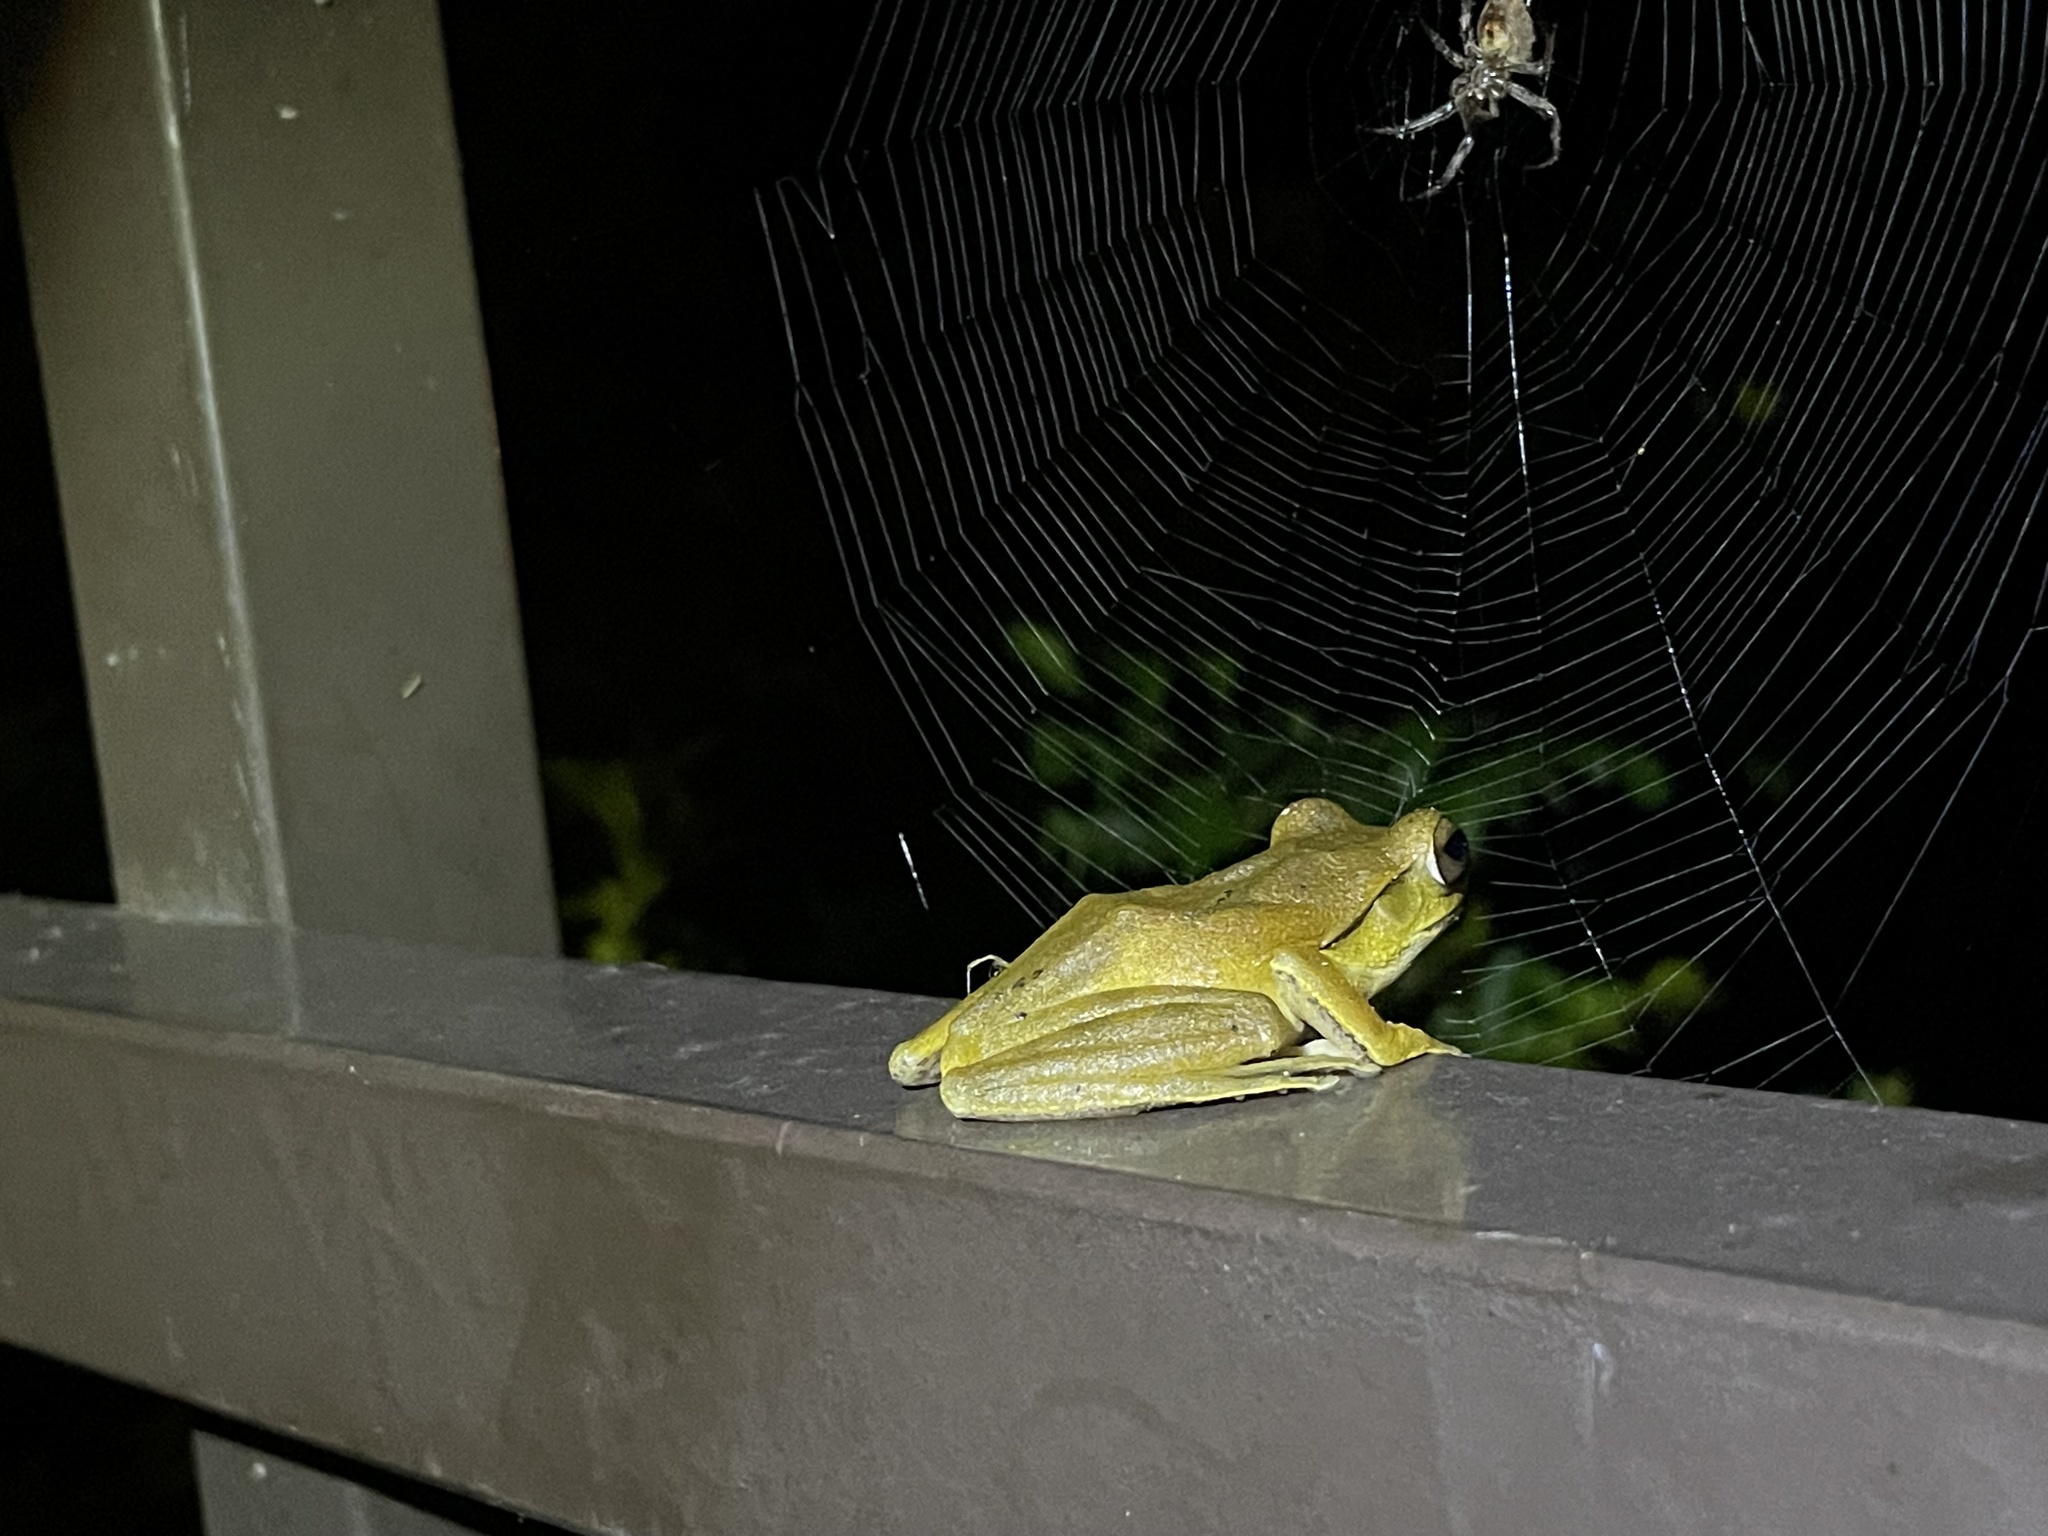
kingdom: Animalia
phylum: Chordata
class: Amphibia
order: Anura
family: Rhacophoridae
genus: Polypedates
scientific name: Polypedates braueri
